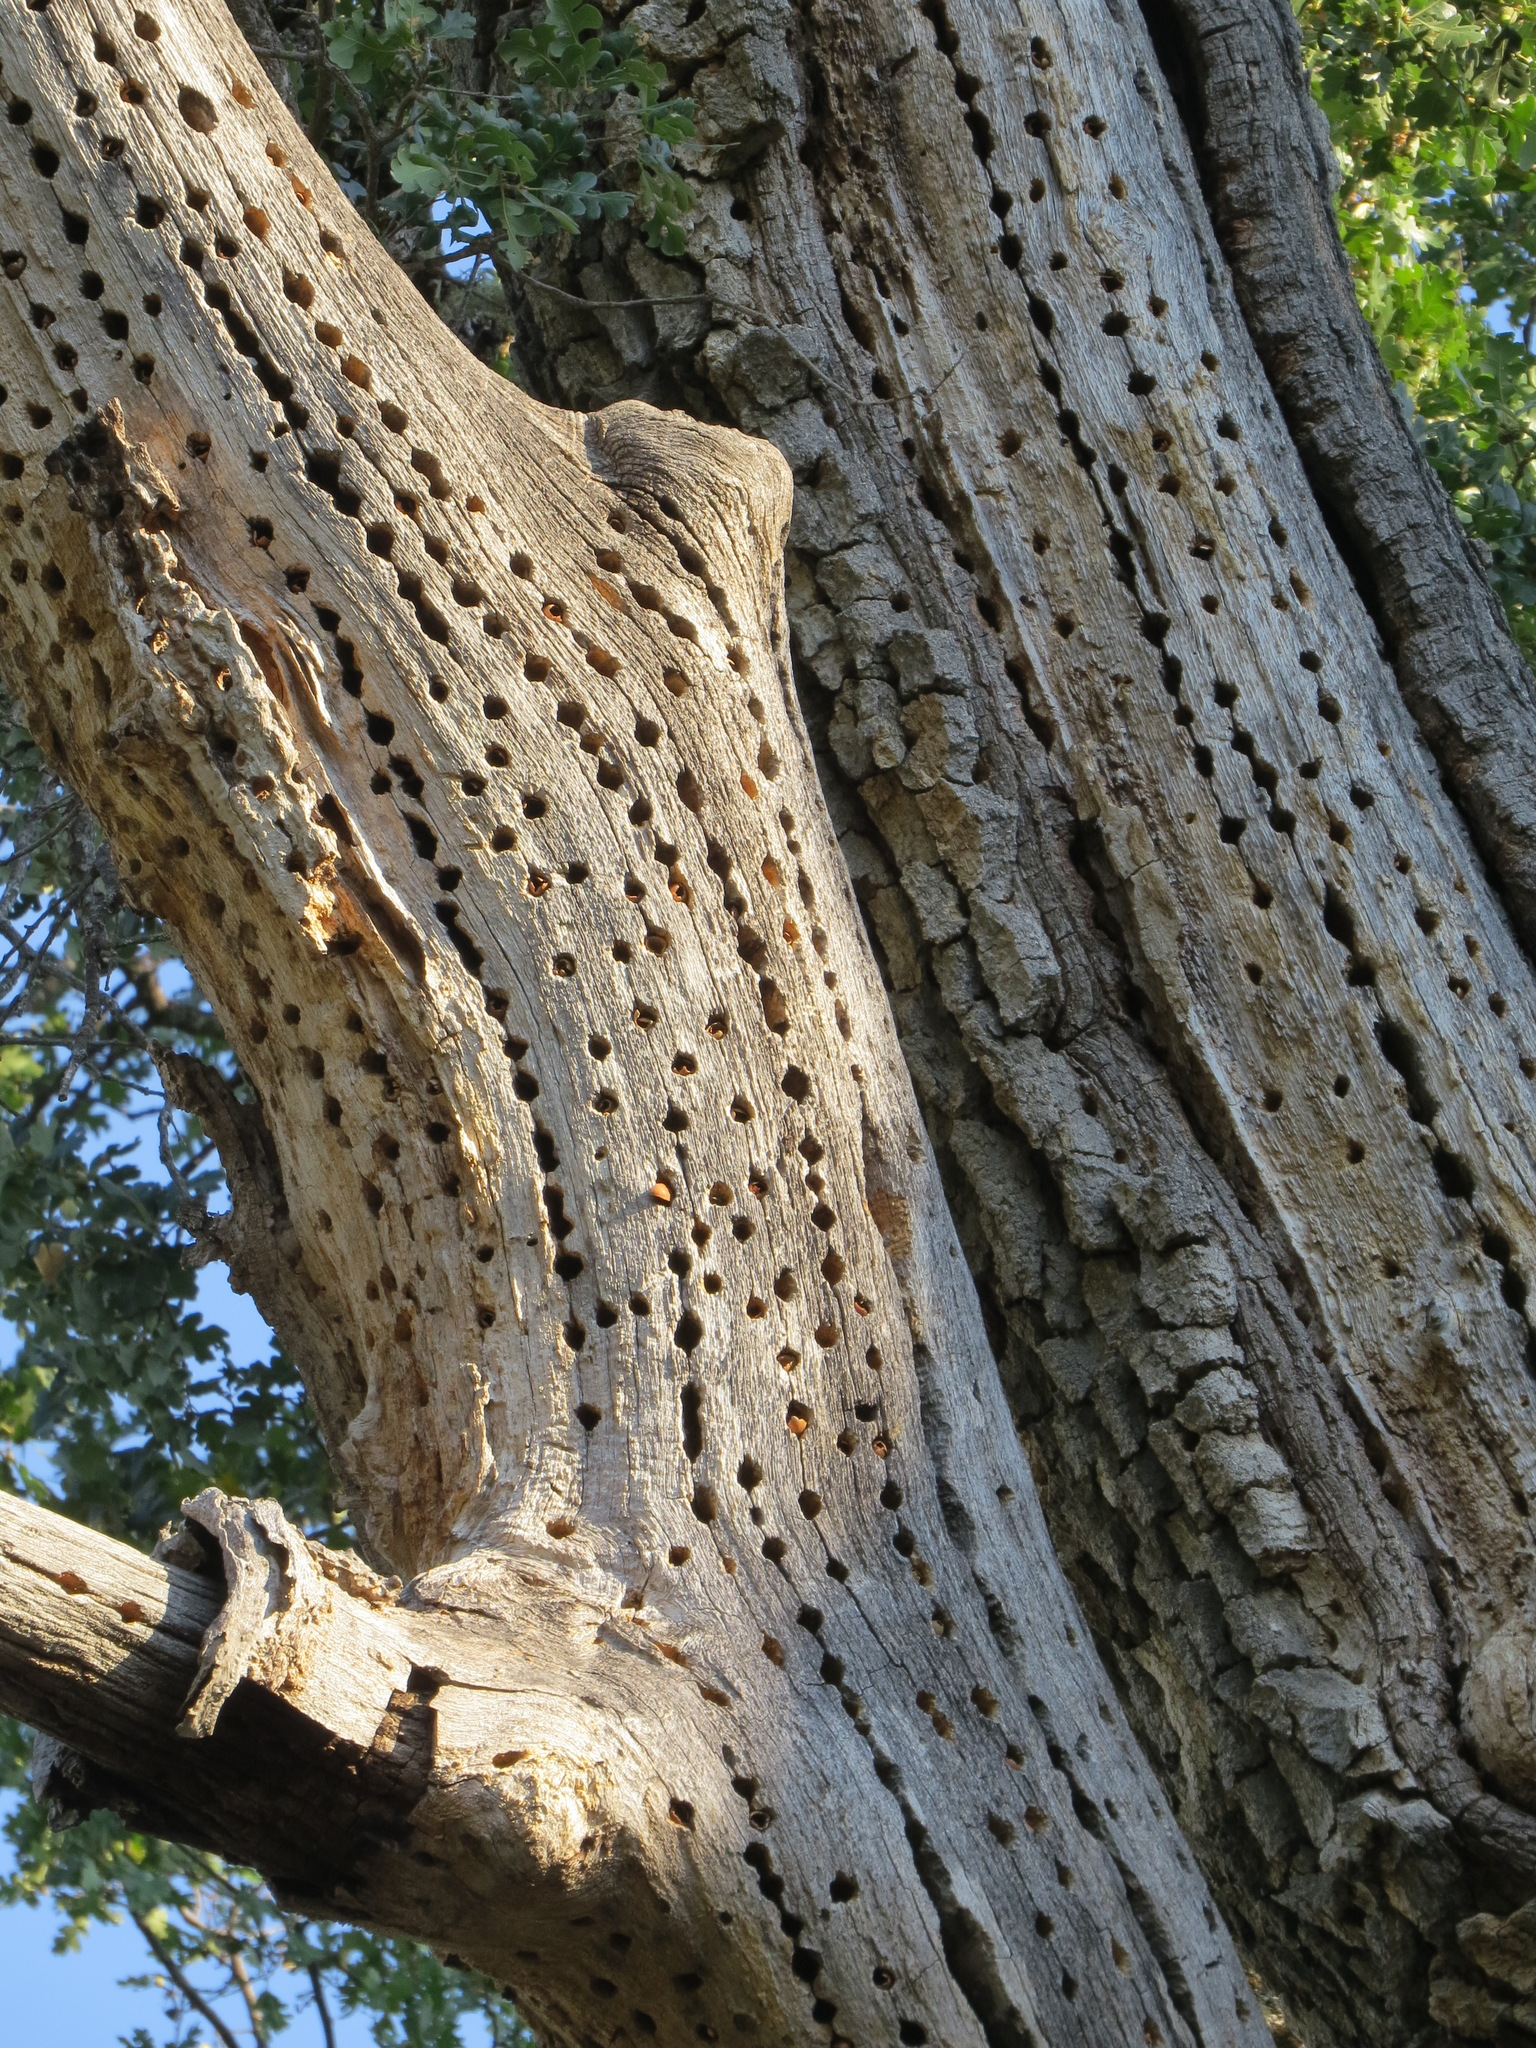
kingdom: Animalia
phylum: Chordata
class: Aves
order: Piciformes
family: Picidae
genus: Melanerpes
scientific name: Melanerpes formicivorus
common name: Acorn woodpecker
